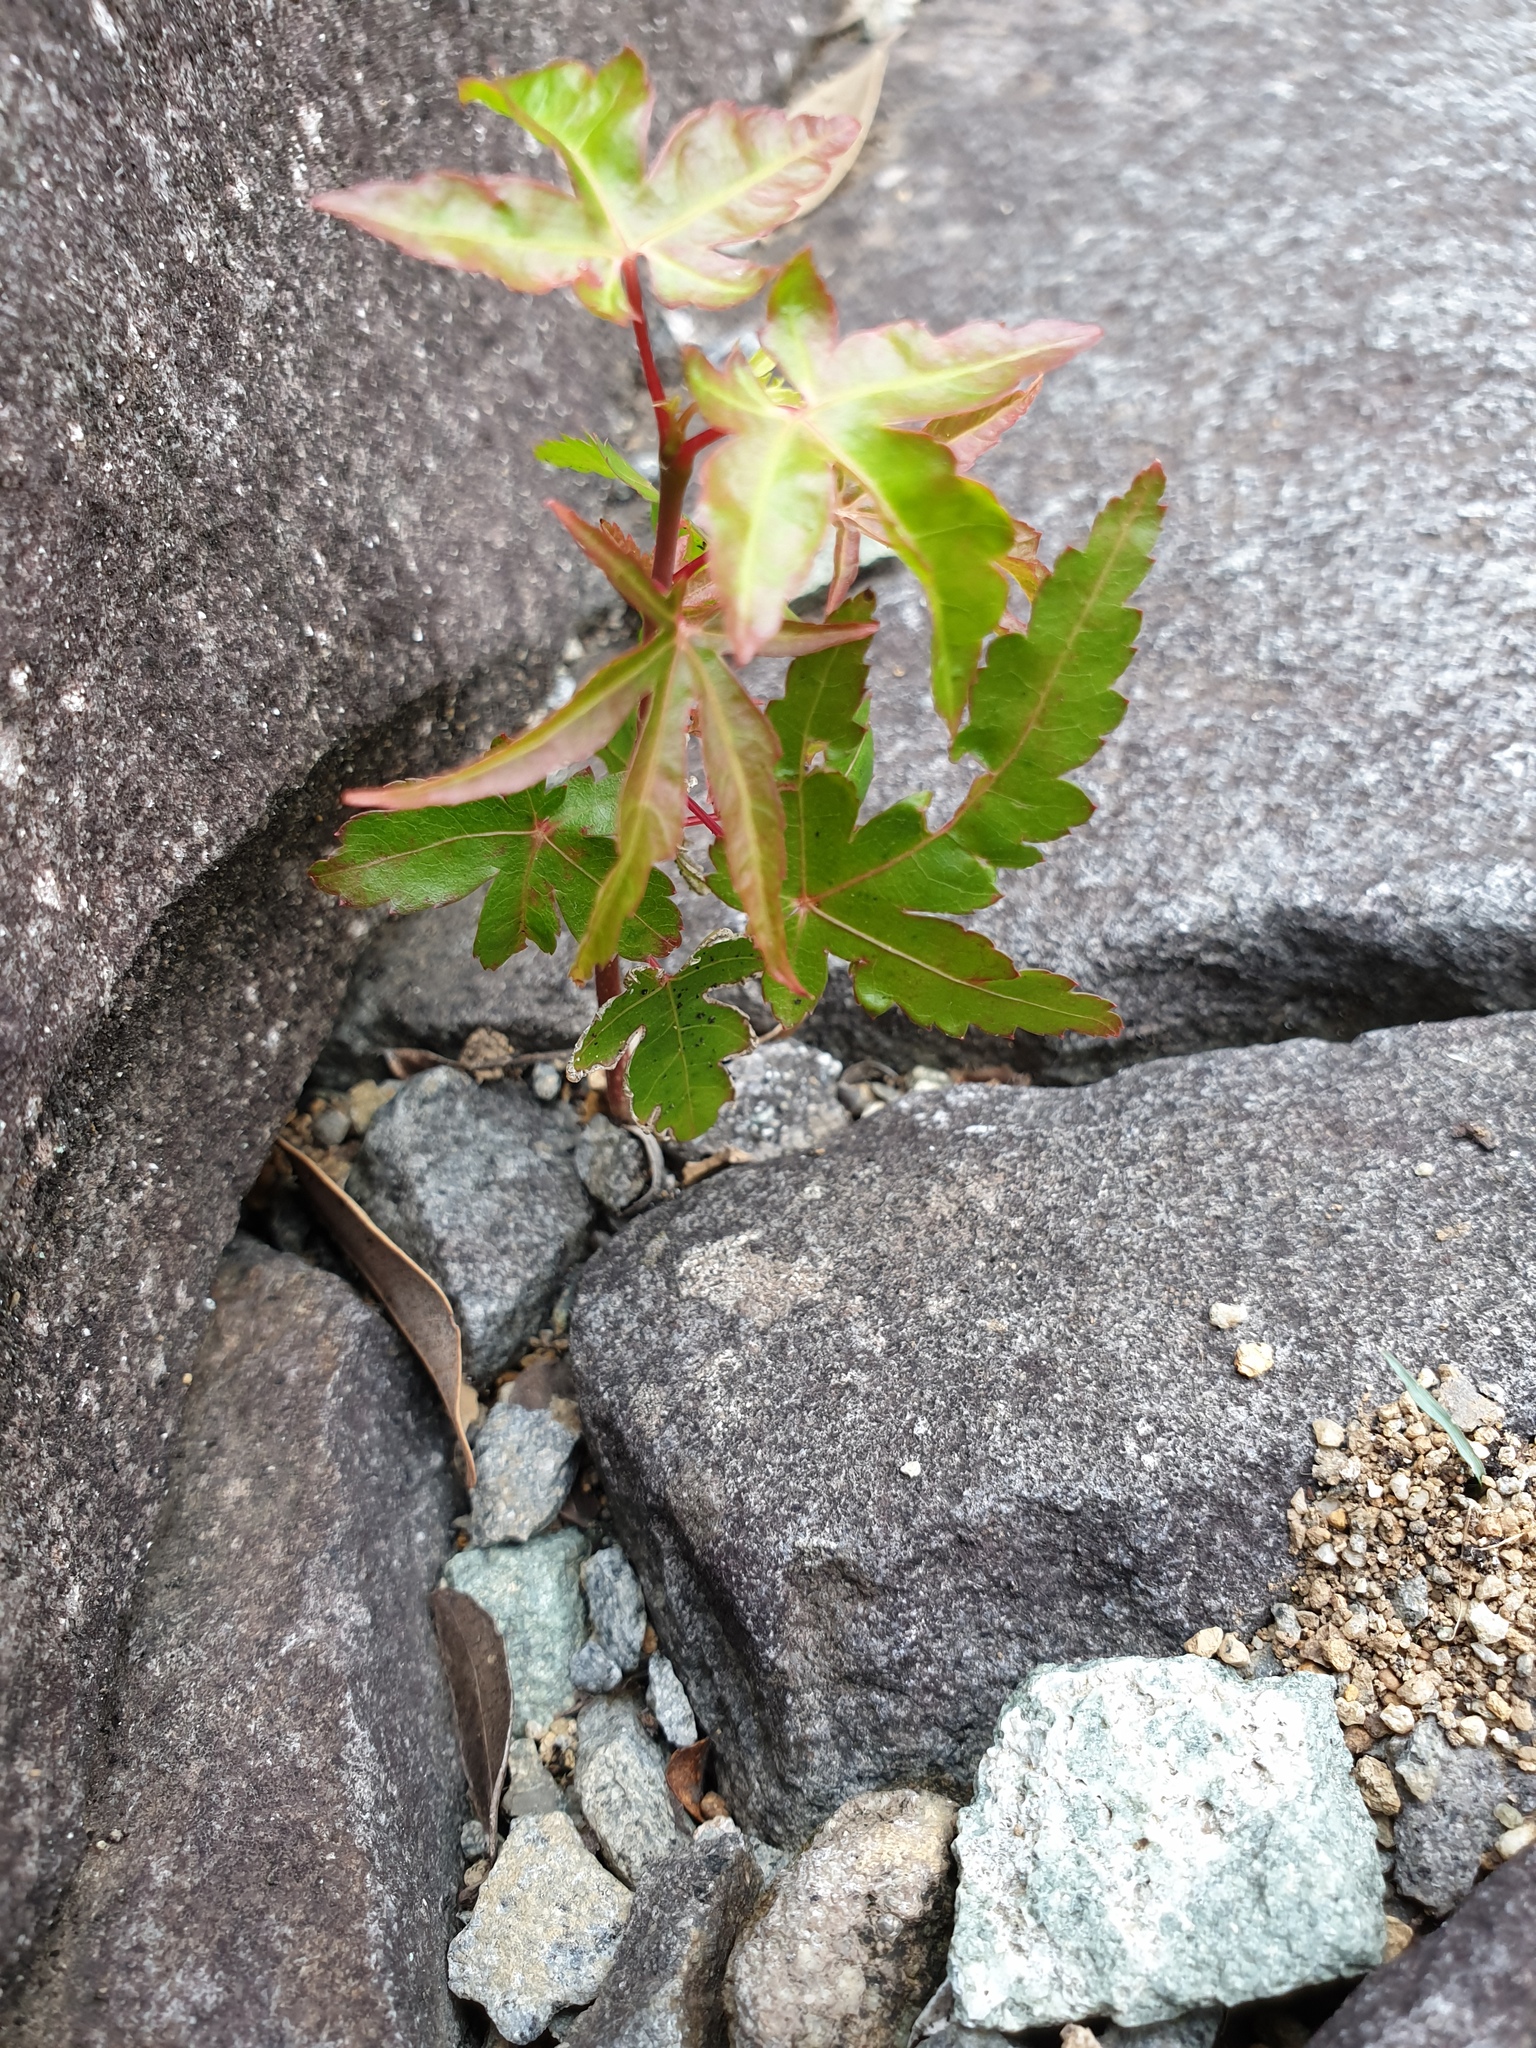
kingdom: Plantae
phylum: Tracheophyta
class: Magnoliopsida
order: Sapindales
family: Sapindaceae
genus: Acer
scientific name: Acer palmatum
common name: Japanese maple
